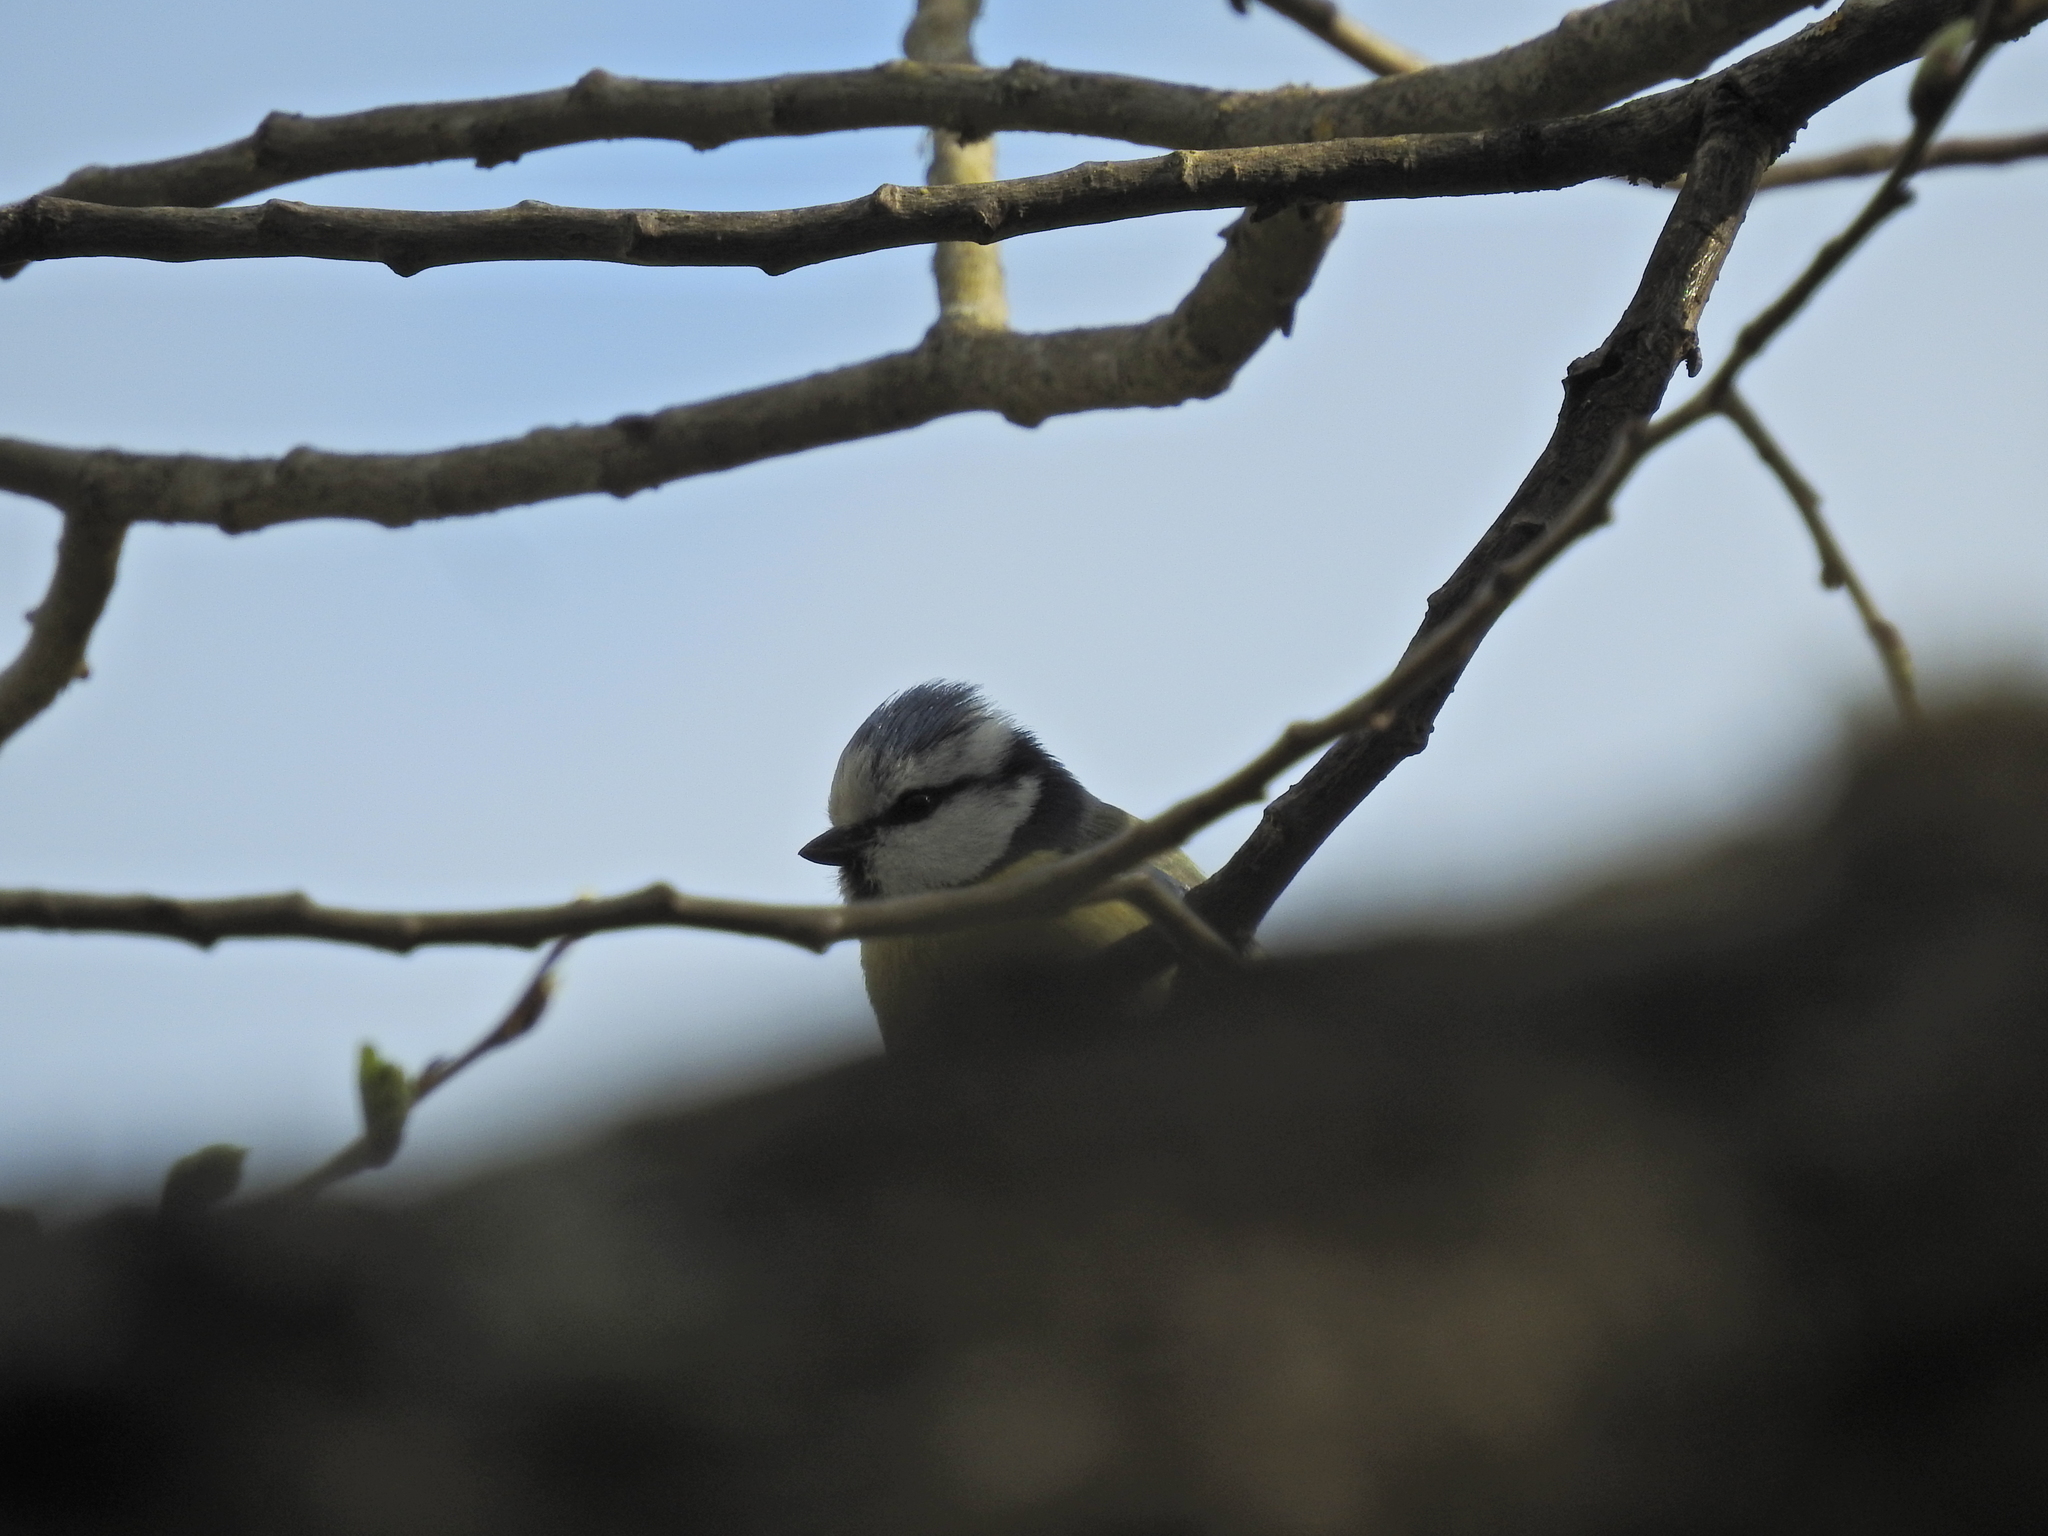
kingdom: Animalia
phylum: Chordata
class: Aves
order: Passeriformes
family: Paridae
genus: Cyanistes
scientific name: Cyanistes caeruleus
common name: Eurasian blue tit
